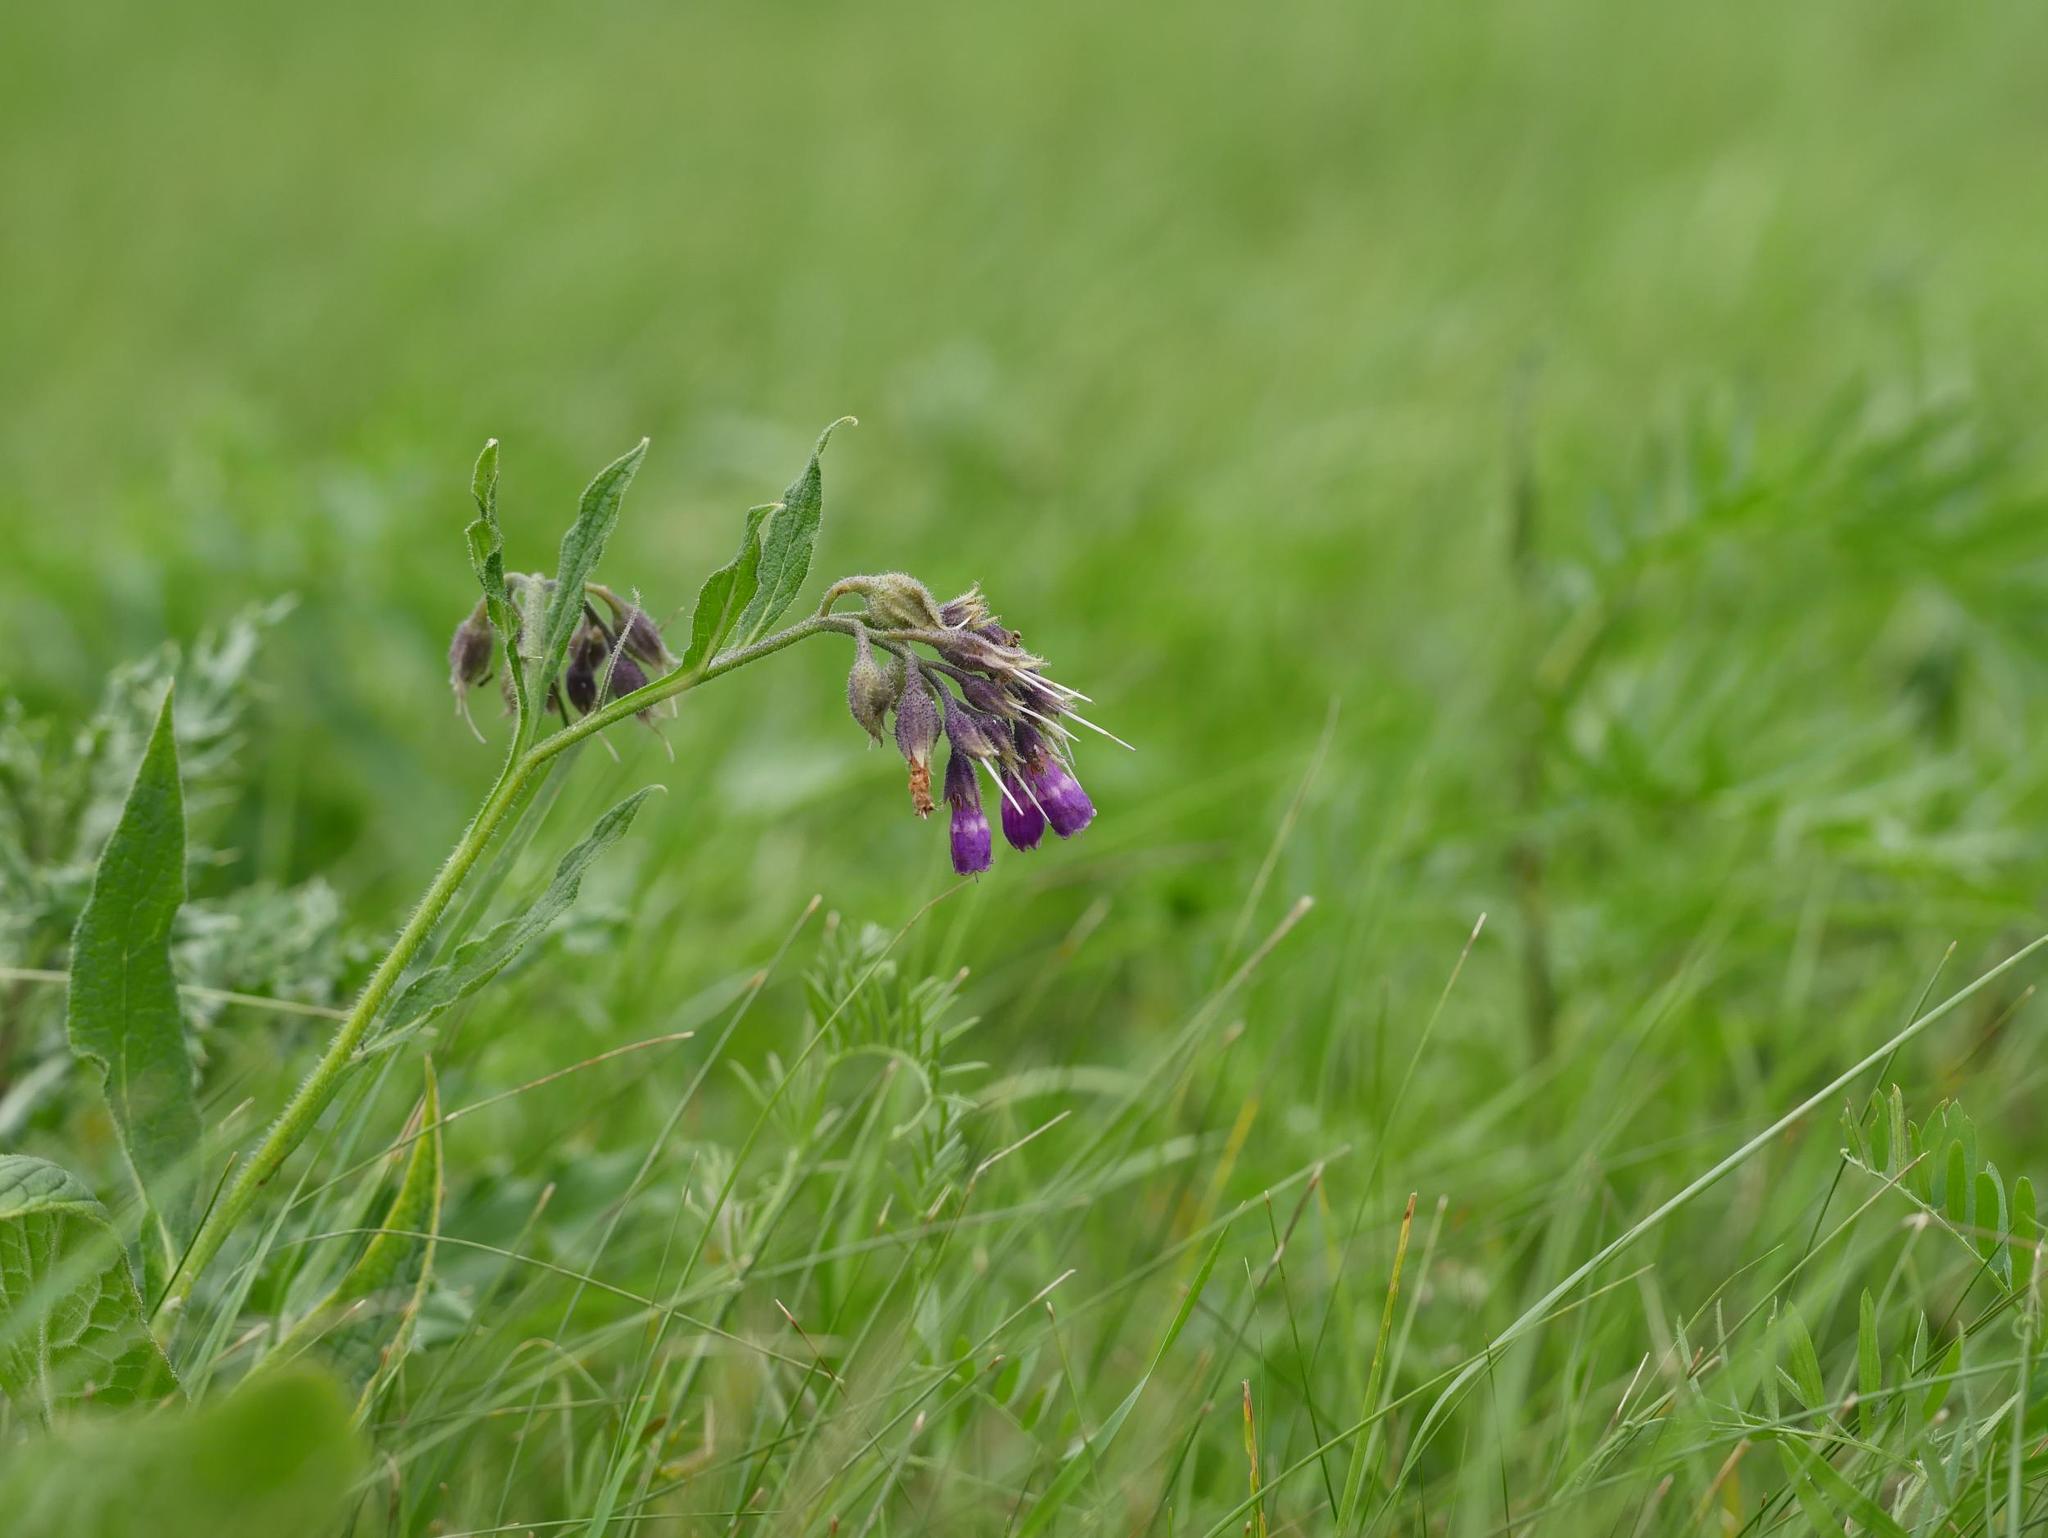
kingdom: Plantae
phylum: Tracheophyta
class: Magnoliopsida
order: Boraginales
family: Boraginaceae
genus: Symphytum
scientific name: Symphytum officinale
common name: Common comfrey
